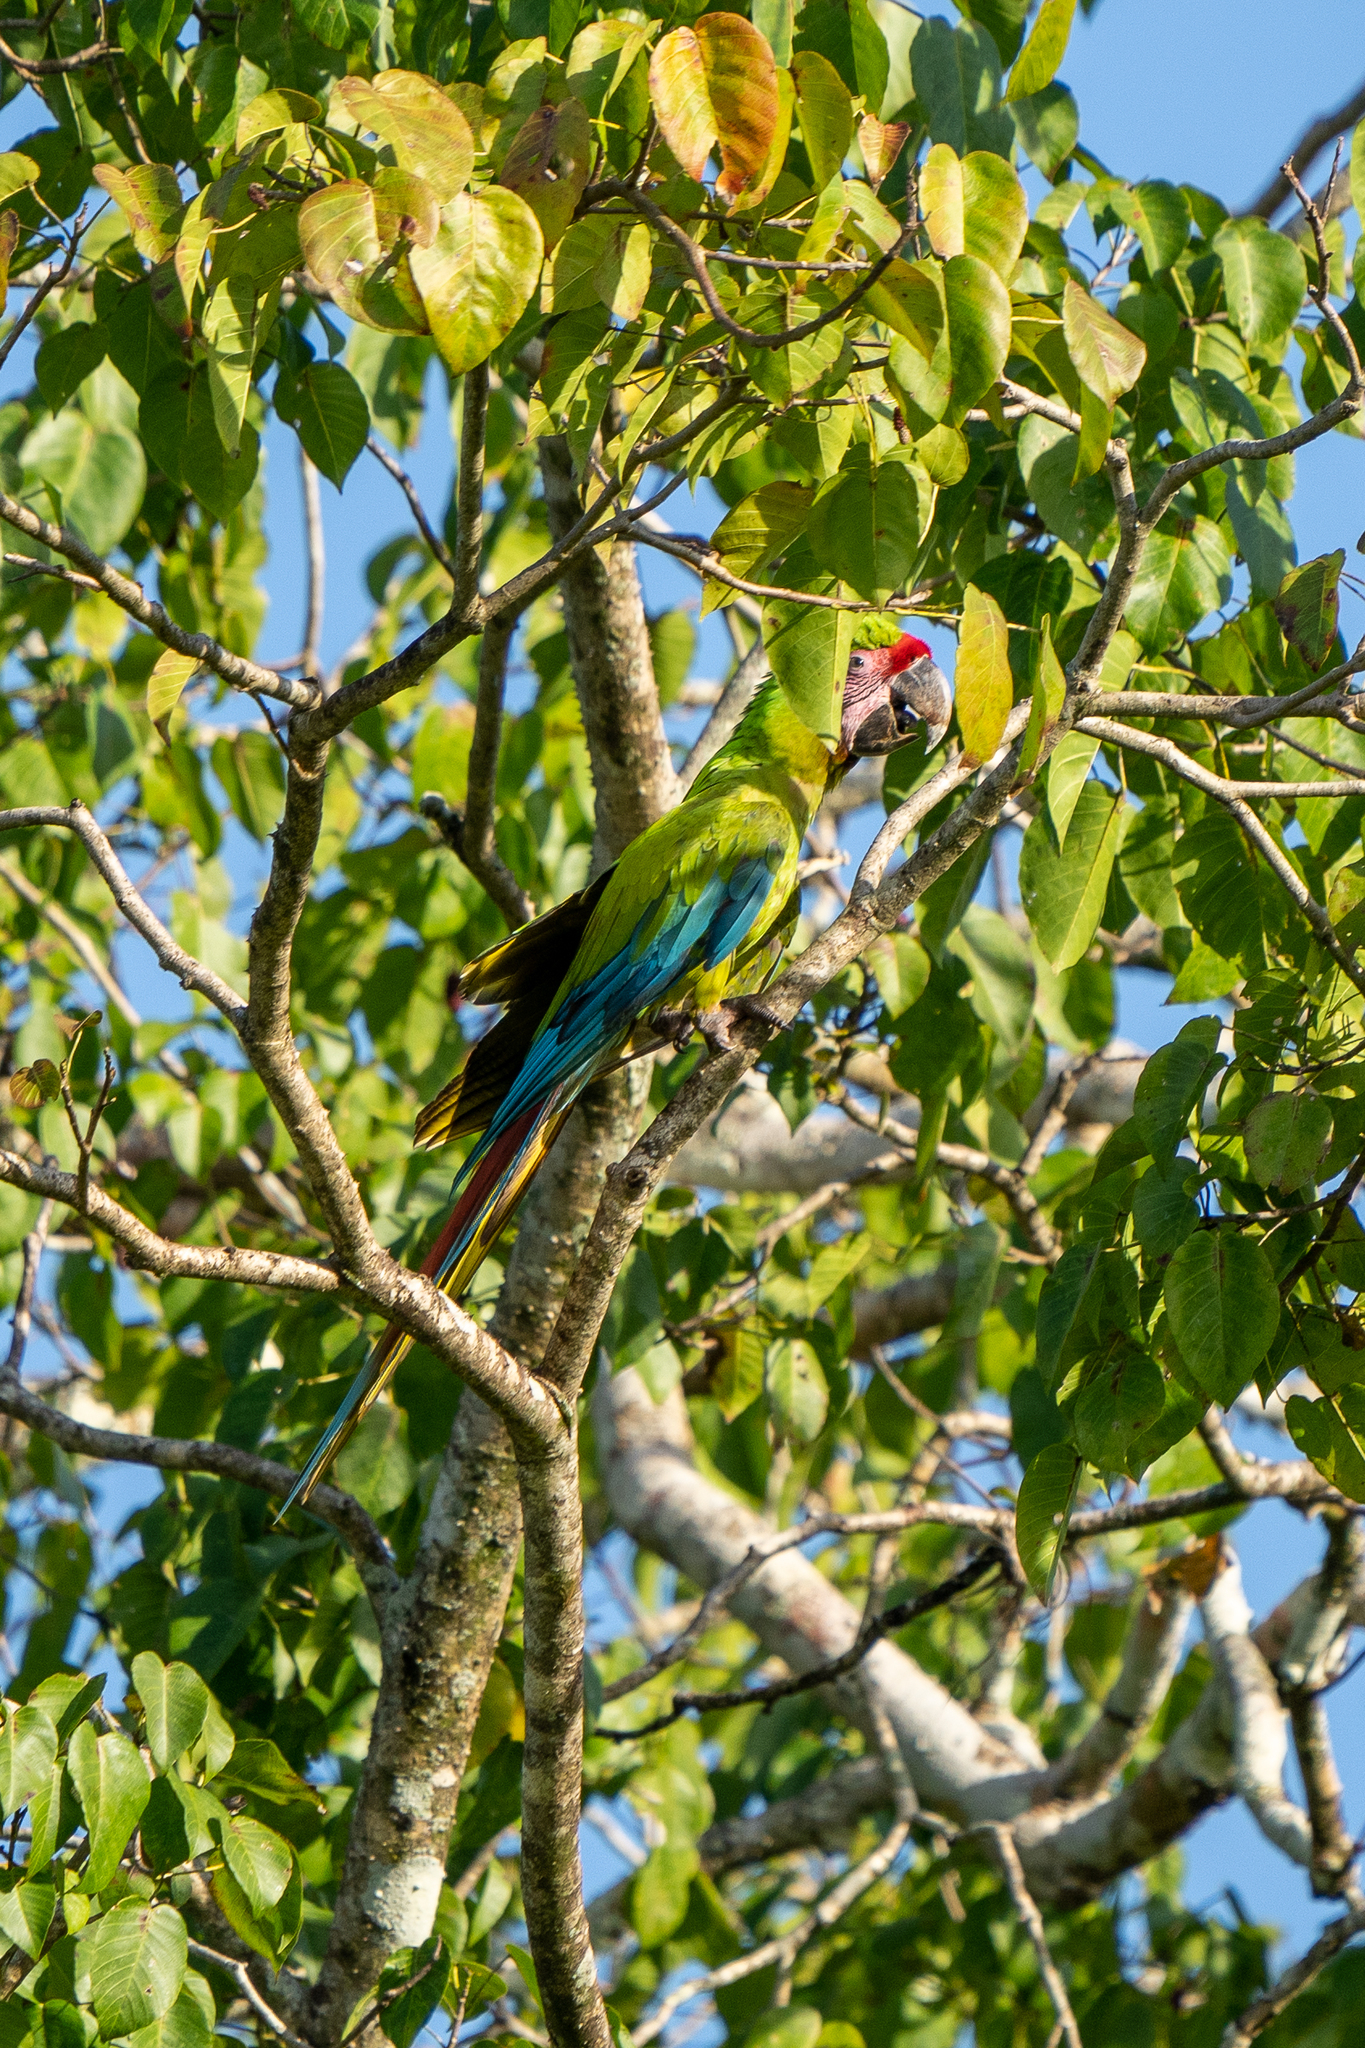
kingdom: Animalia
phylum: Chordata
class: Aves
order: Psittaciformes
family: Psittacidae
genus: Ara
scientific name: Ara ambiguus
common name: Great green macaw
